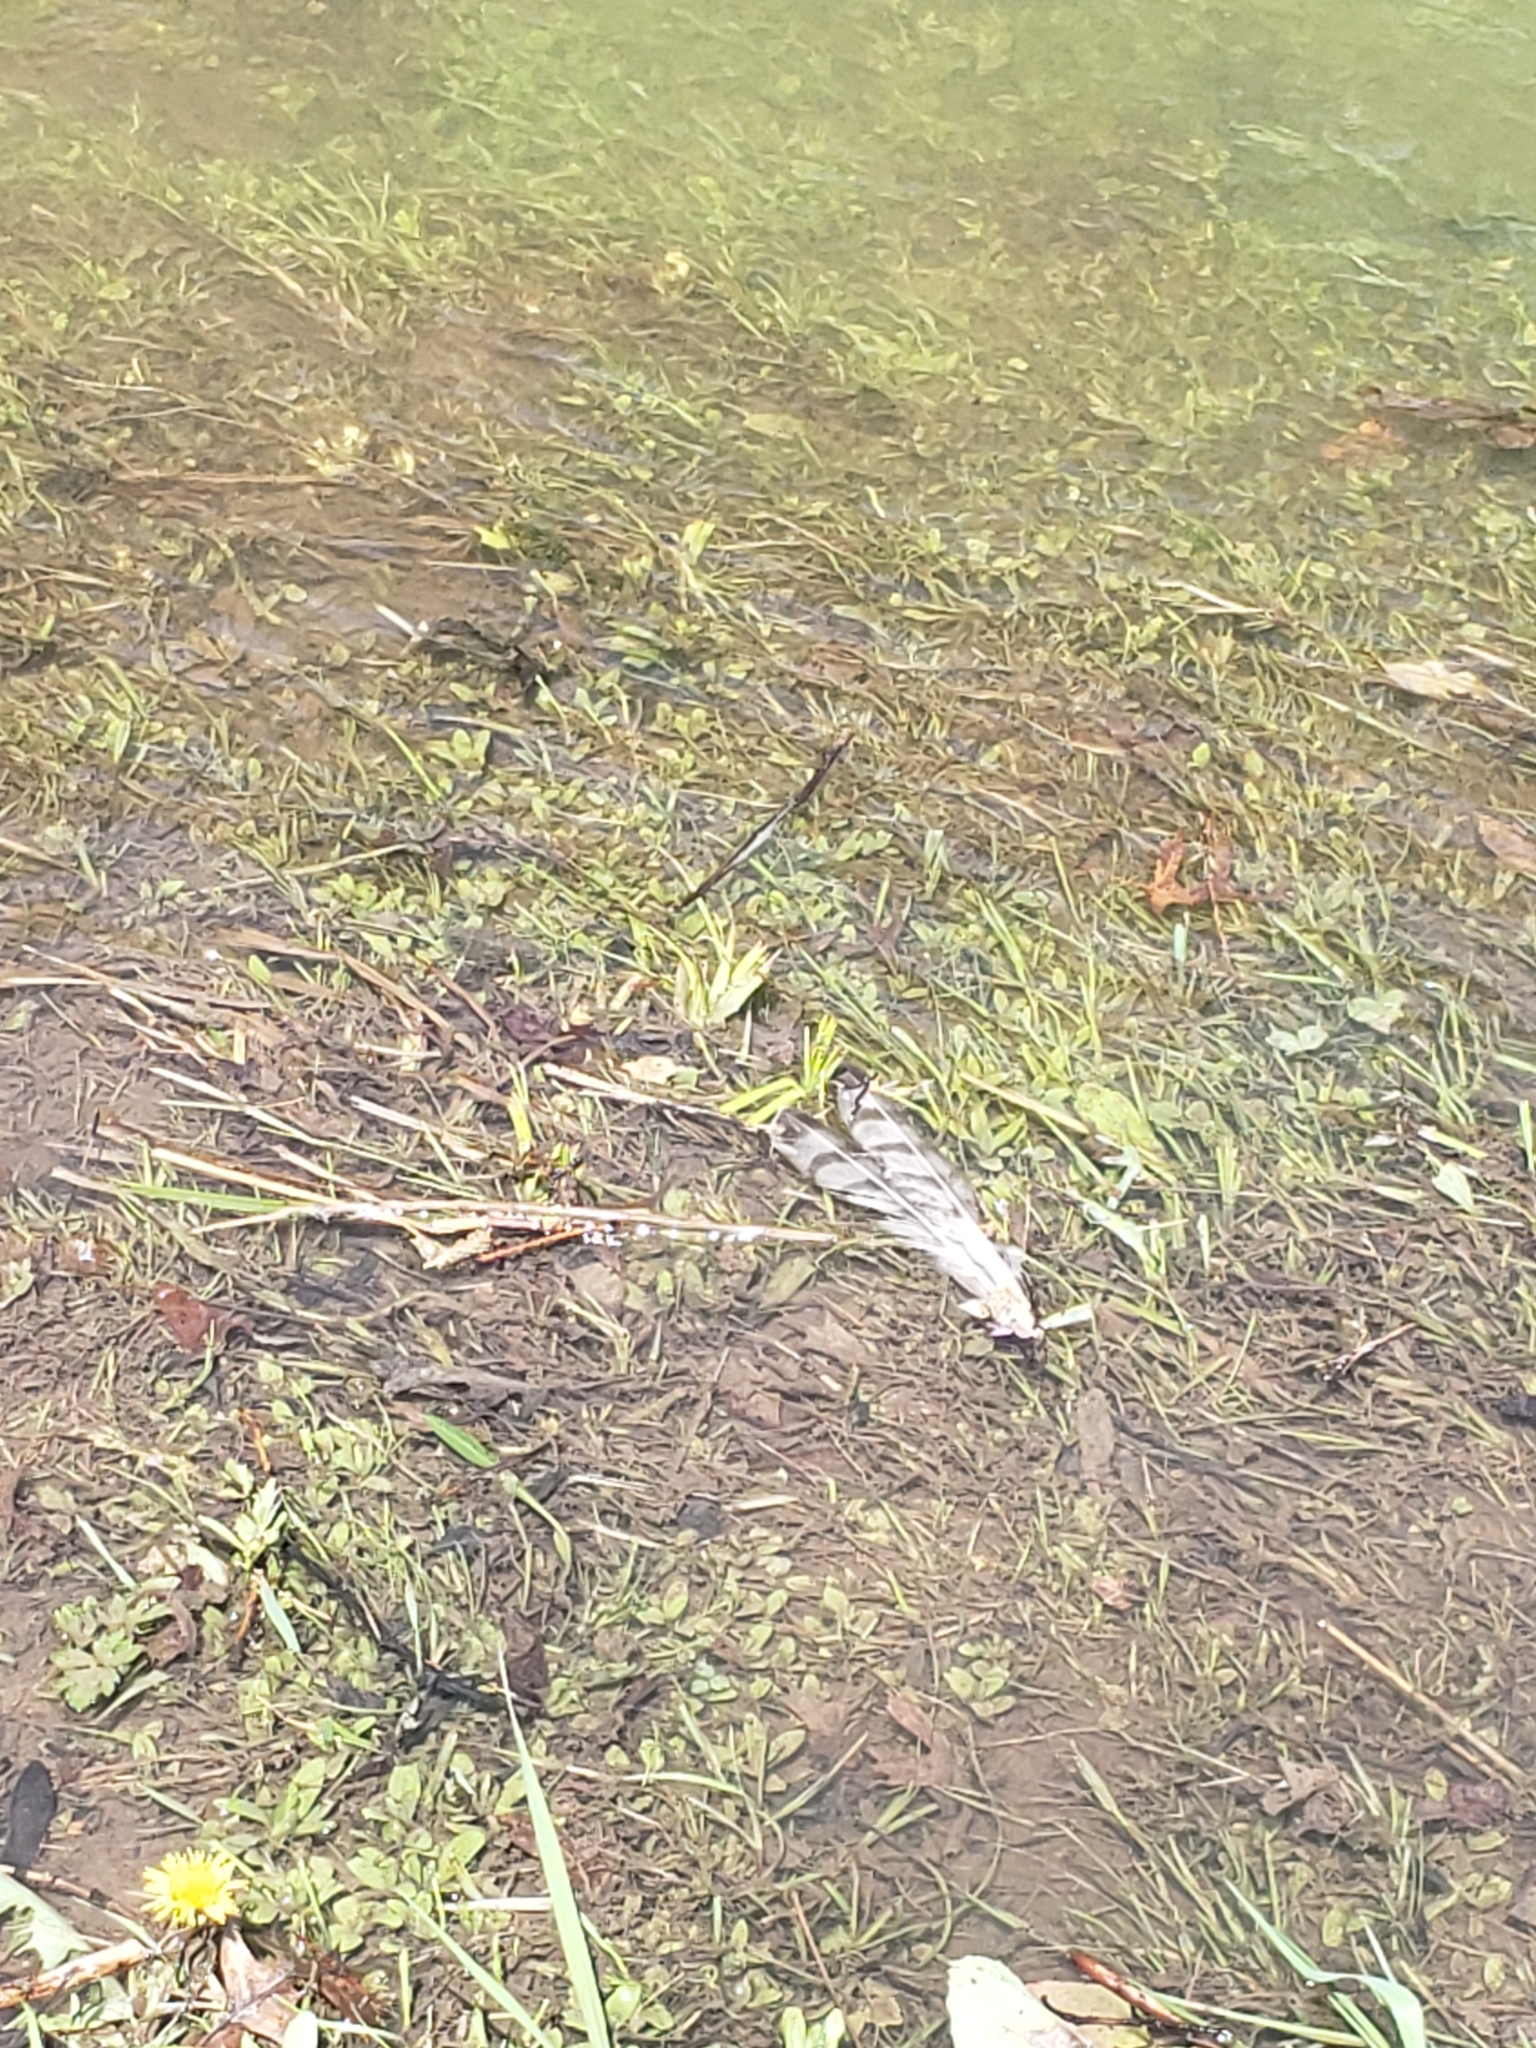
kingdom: Animalia
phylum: Chordata
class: Aves
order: Accipitriformes
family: Accipitridae
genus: Accipiter
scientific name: Accipiter cooperii
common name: Cooper's hawk
